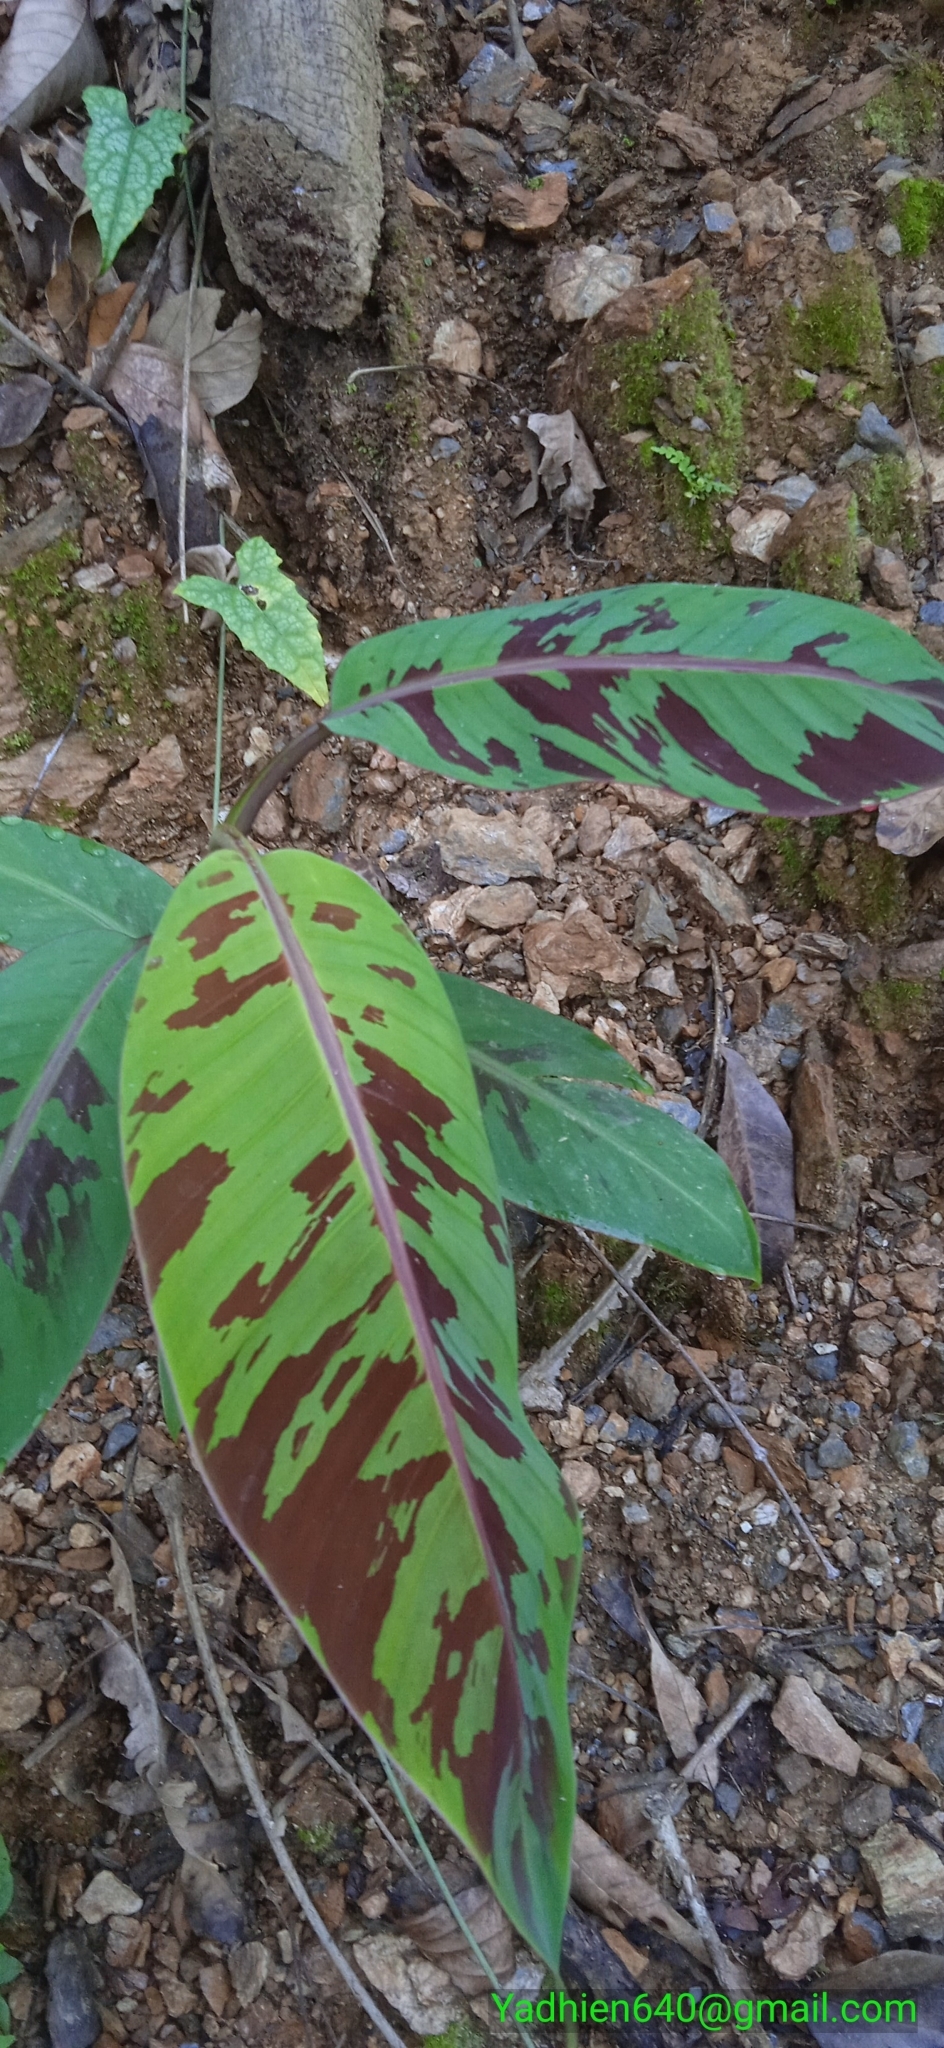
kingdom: Plantae
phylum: Tracheophyta
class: Liliopsida
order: Zingiberales
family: Musaceae
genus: Musa
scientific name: Musa acuminata
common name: Edible banana
